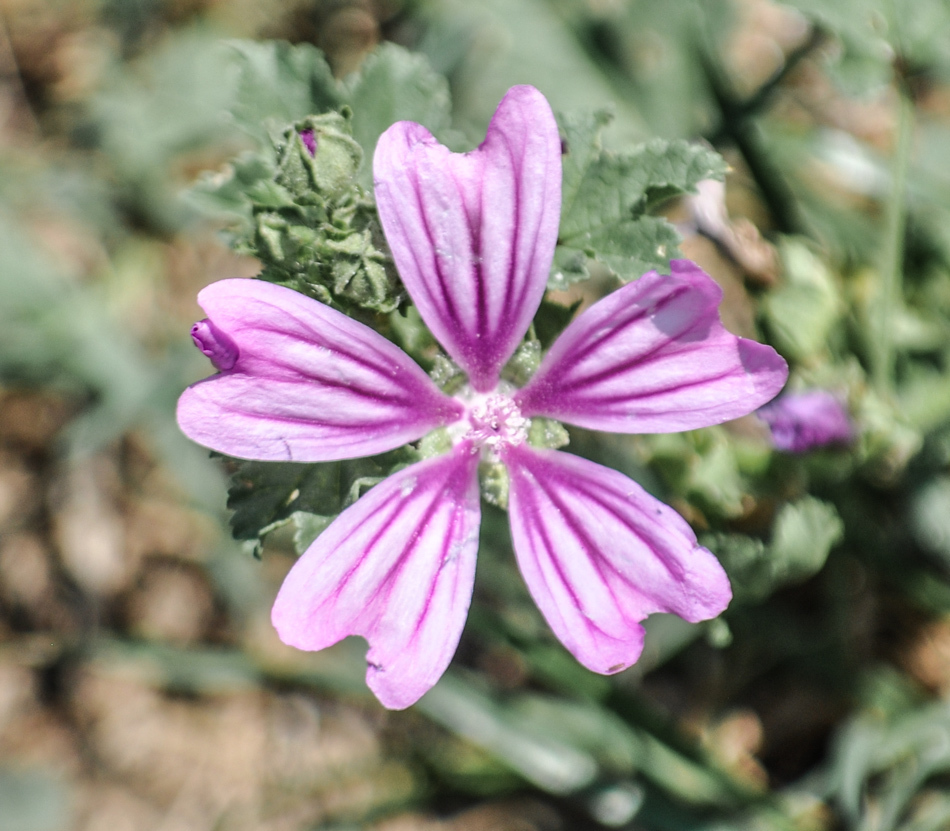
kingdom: Plantae
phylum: Tracheophyta
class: Magnoliopsida
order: Malvales
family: Malvaceae
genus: Malva
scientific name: Malva sylvestris
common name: Common mallow
